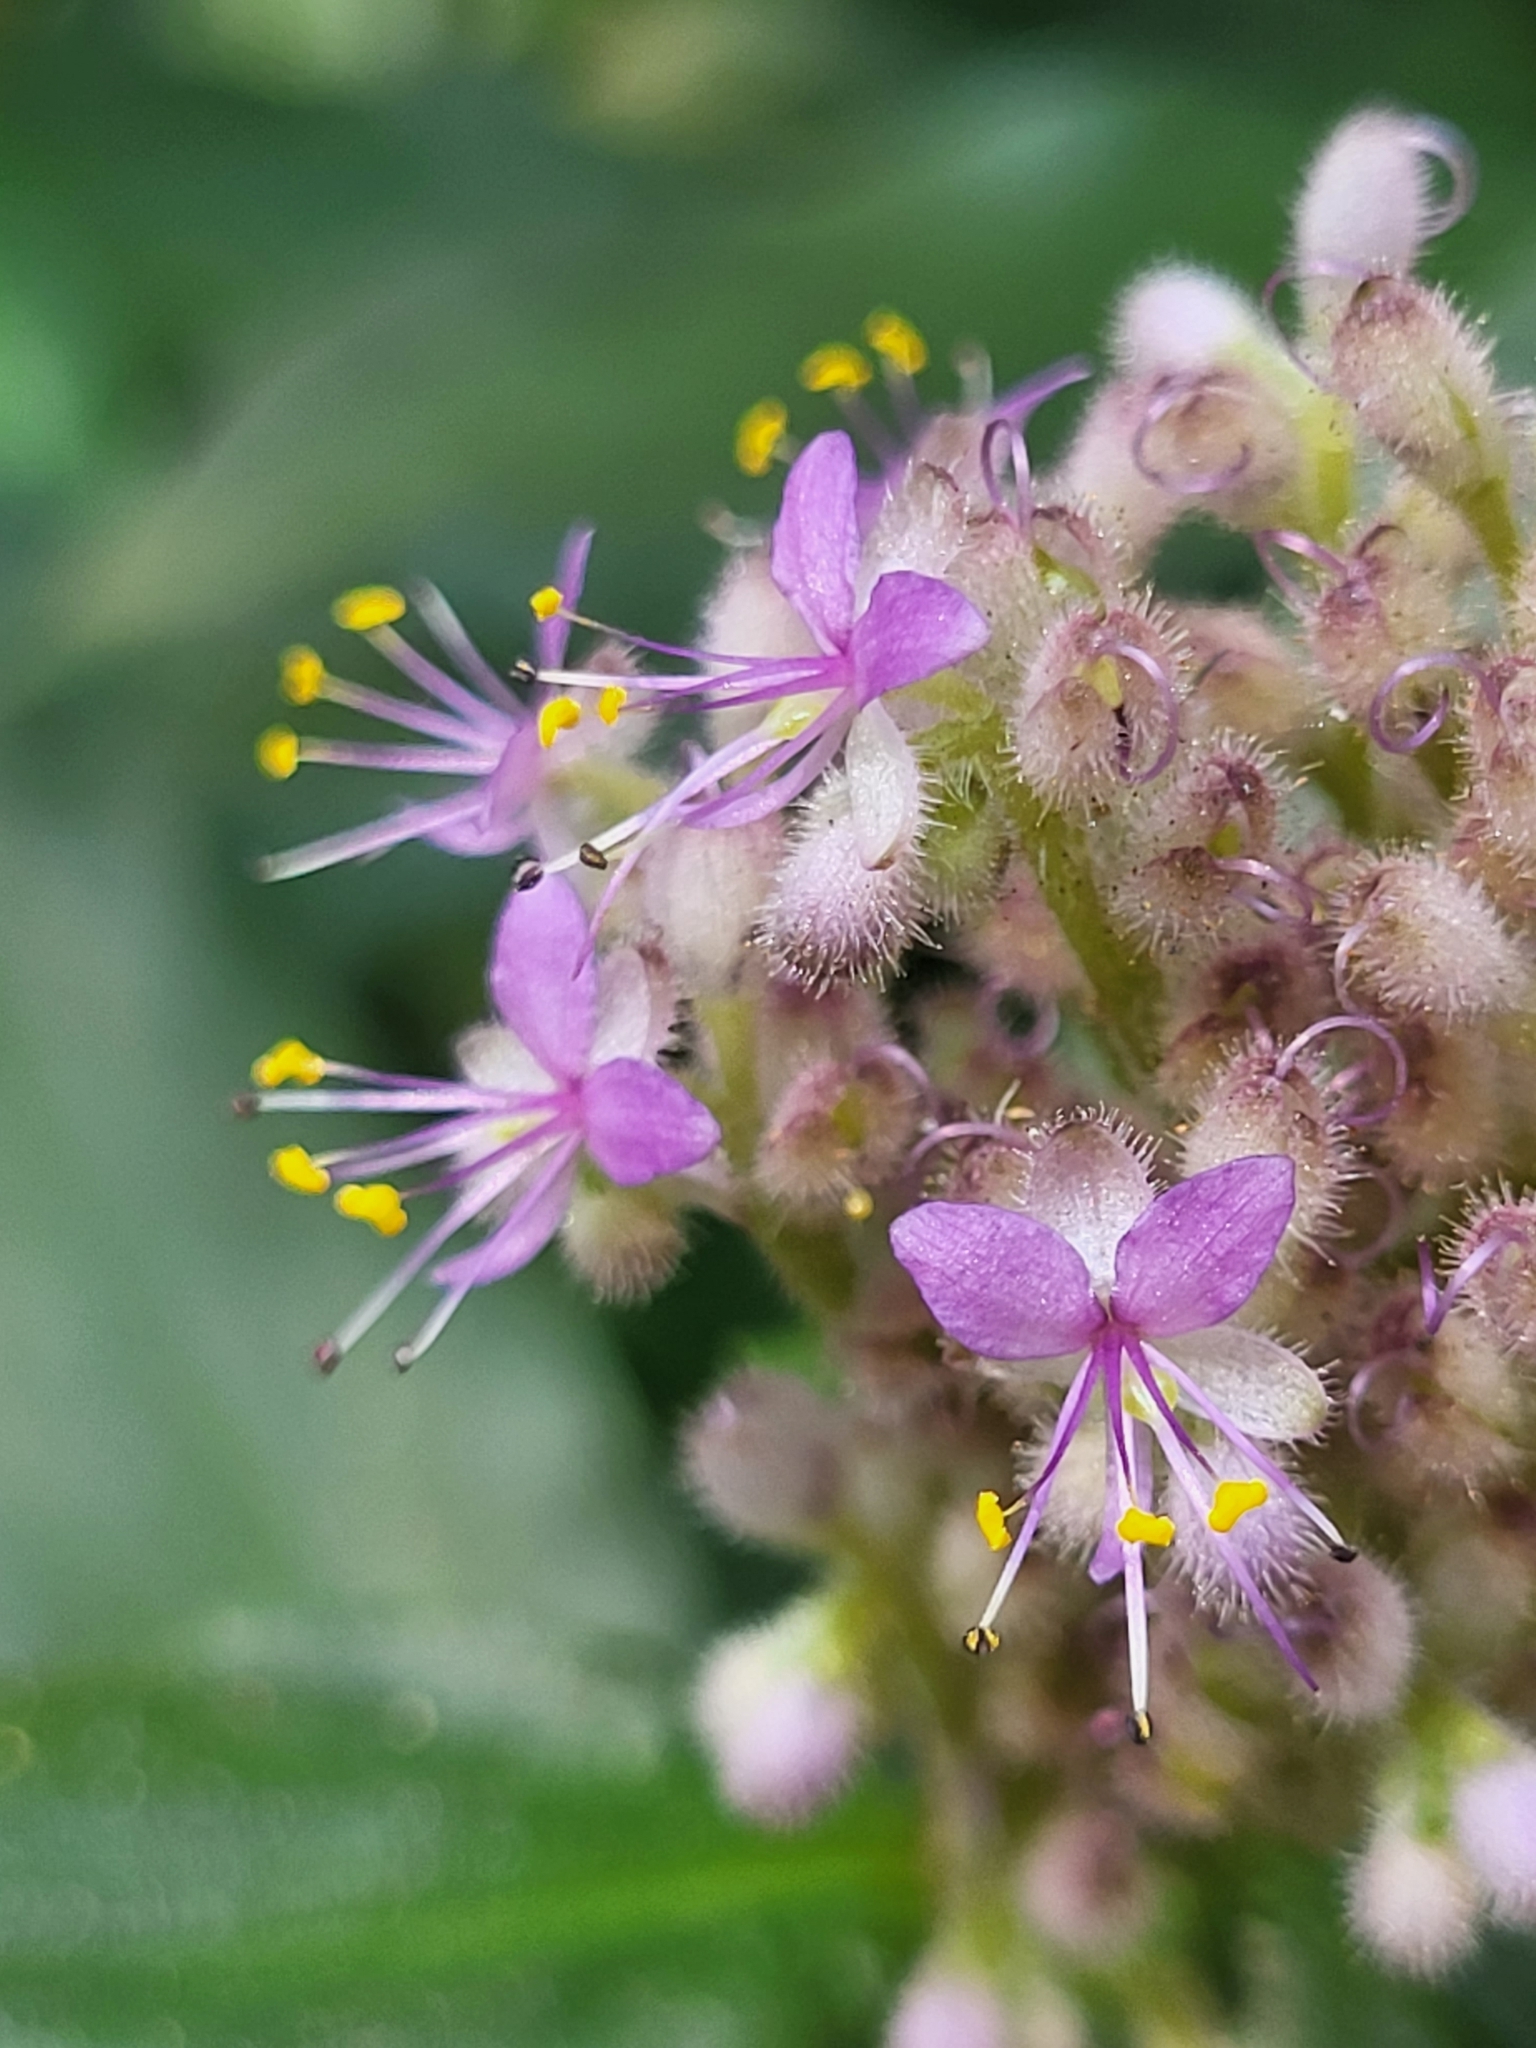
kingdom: Plantae
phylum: Tracheophyta
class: Liliopsida
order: Commelinales
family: Commelinaceae
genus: Floscopa
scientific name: Floscopa scandens
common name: Climbing flower cup
